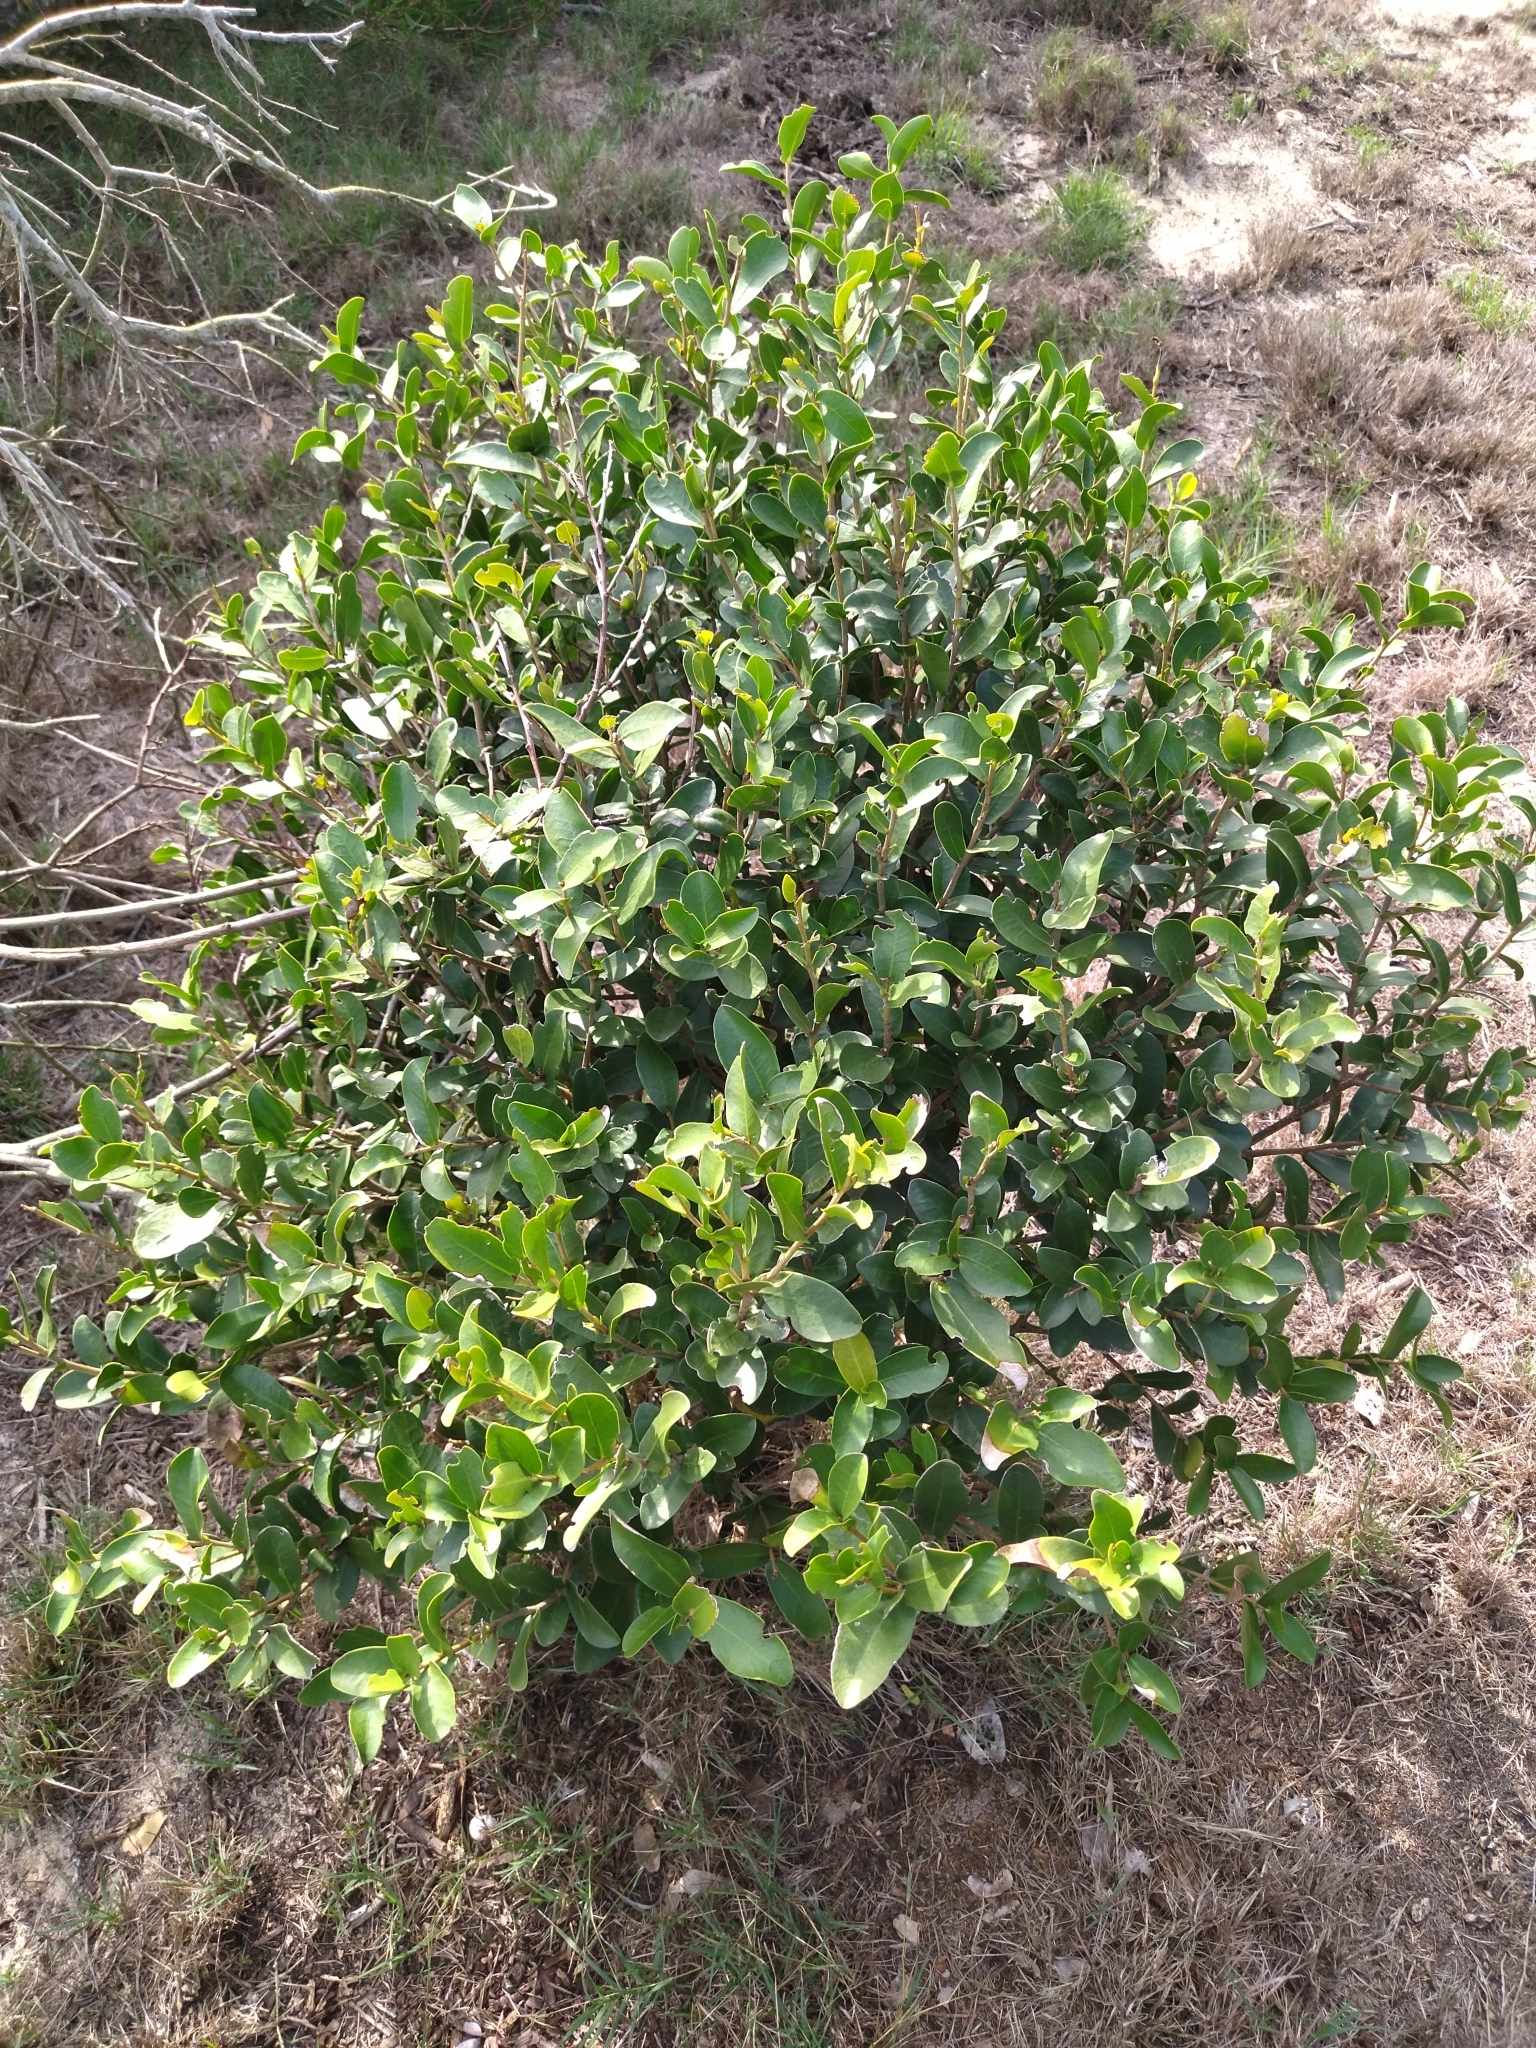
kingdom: Plantae
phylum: Tracheophyta
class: Magnoliopsida
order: Malvales
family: Thymelaeaceae
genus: Daphnopsis
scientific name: Daphnopsis racemosa
